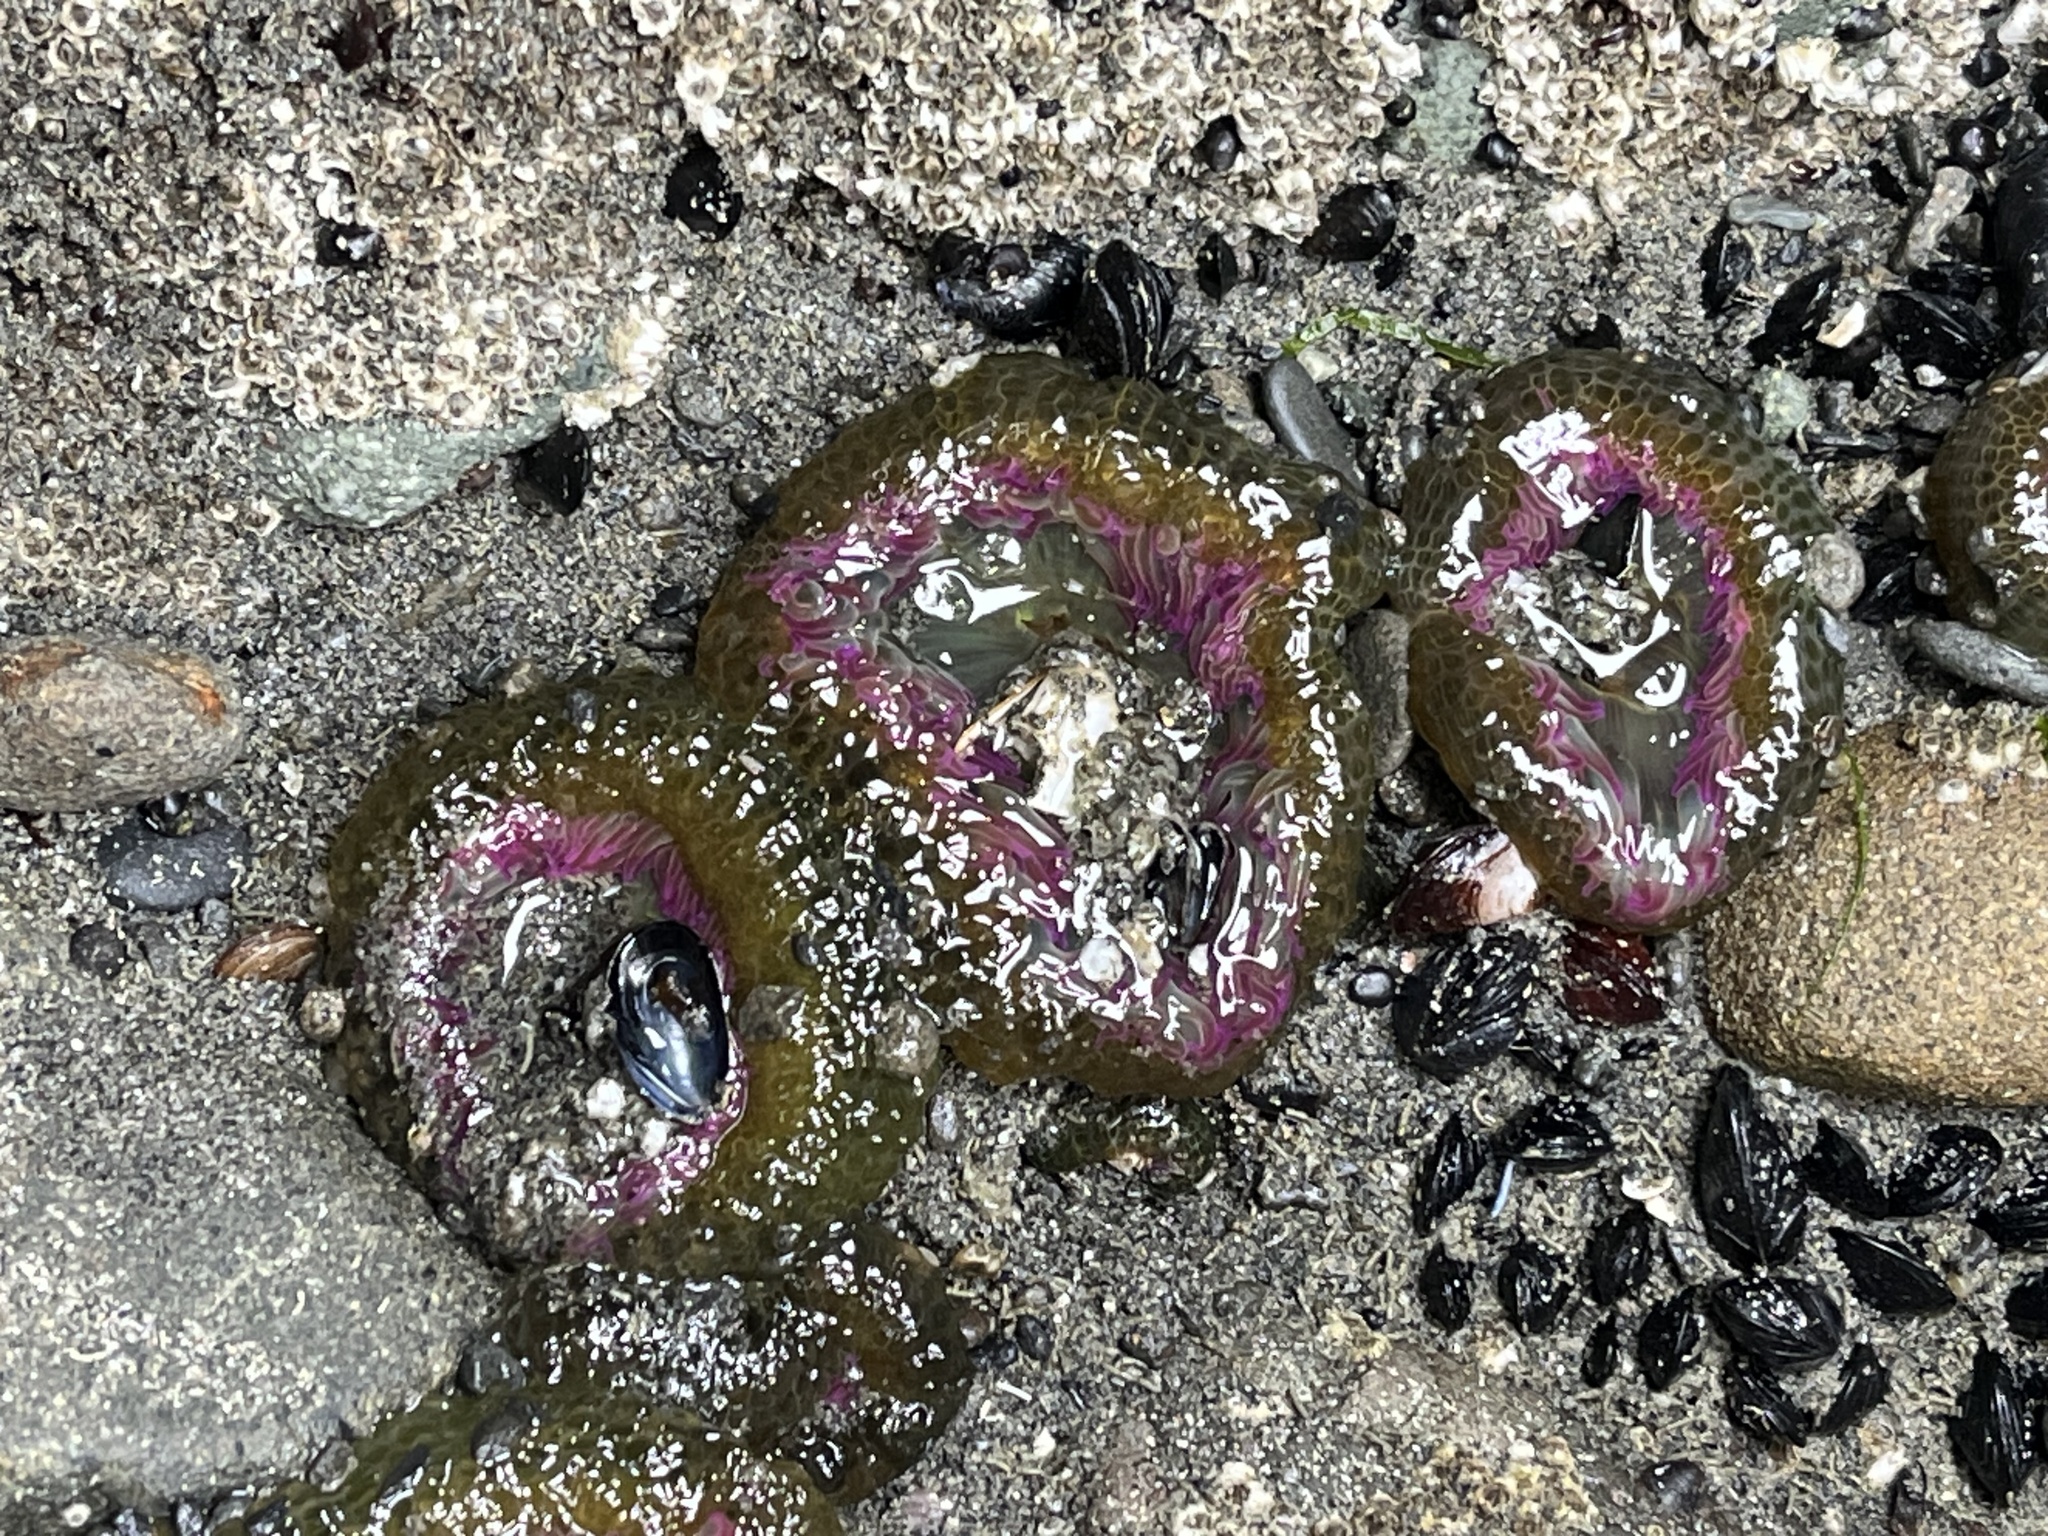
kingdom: Animalia
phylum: Cnidaria
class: Anthozoa
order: Actiniaria
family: Actiniidae
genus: Anthopleura
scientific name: Anthopleura elegantissima
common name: Clonal anemone
